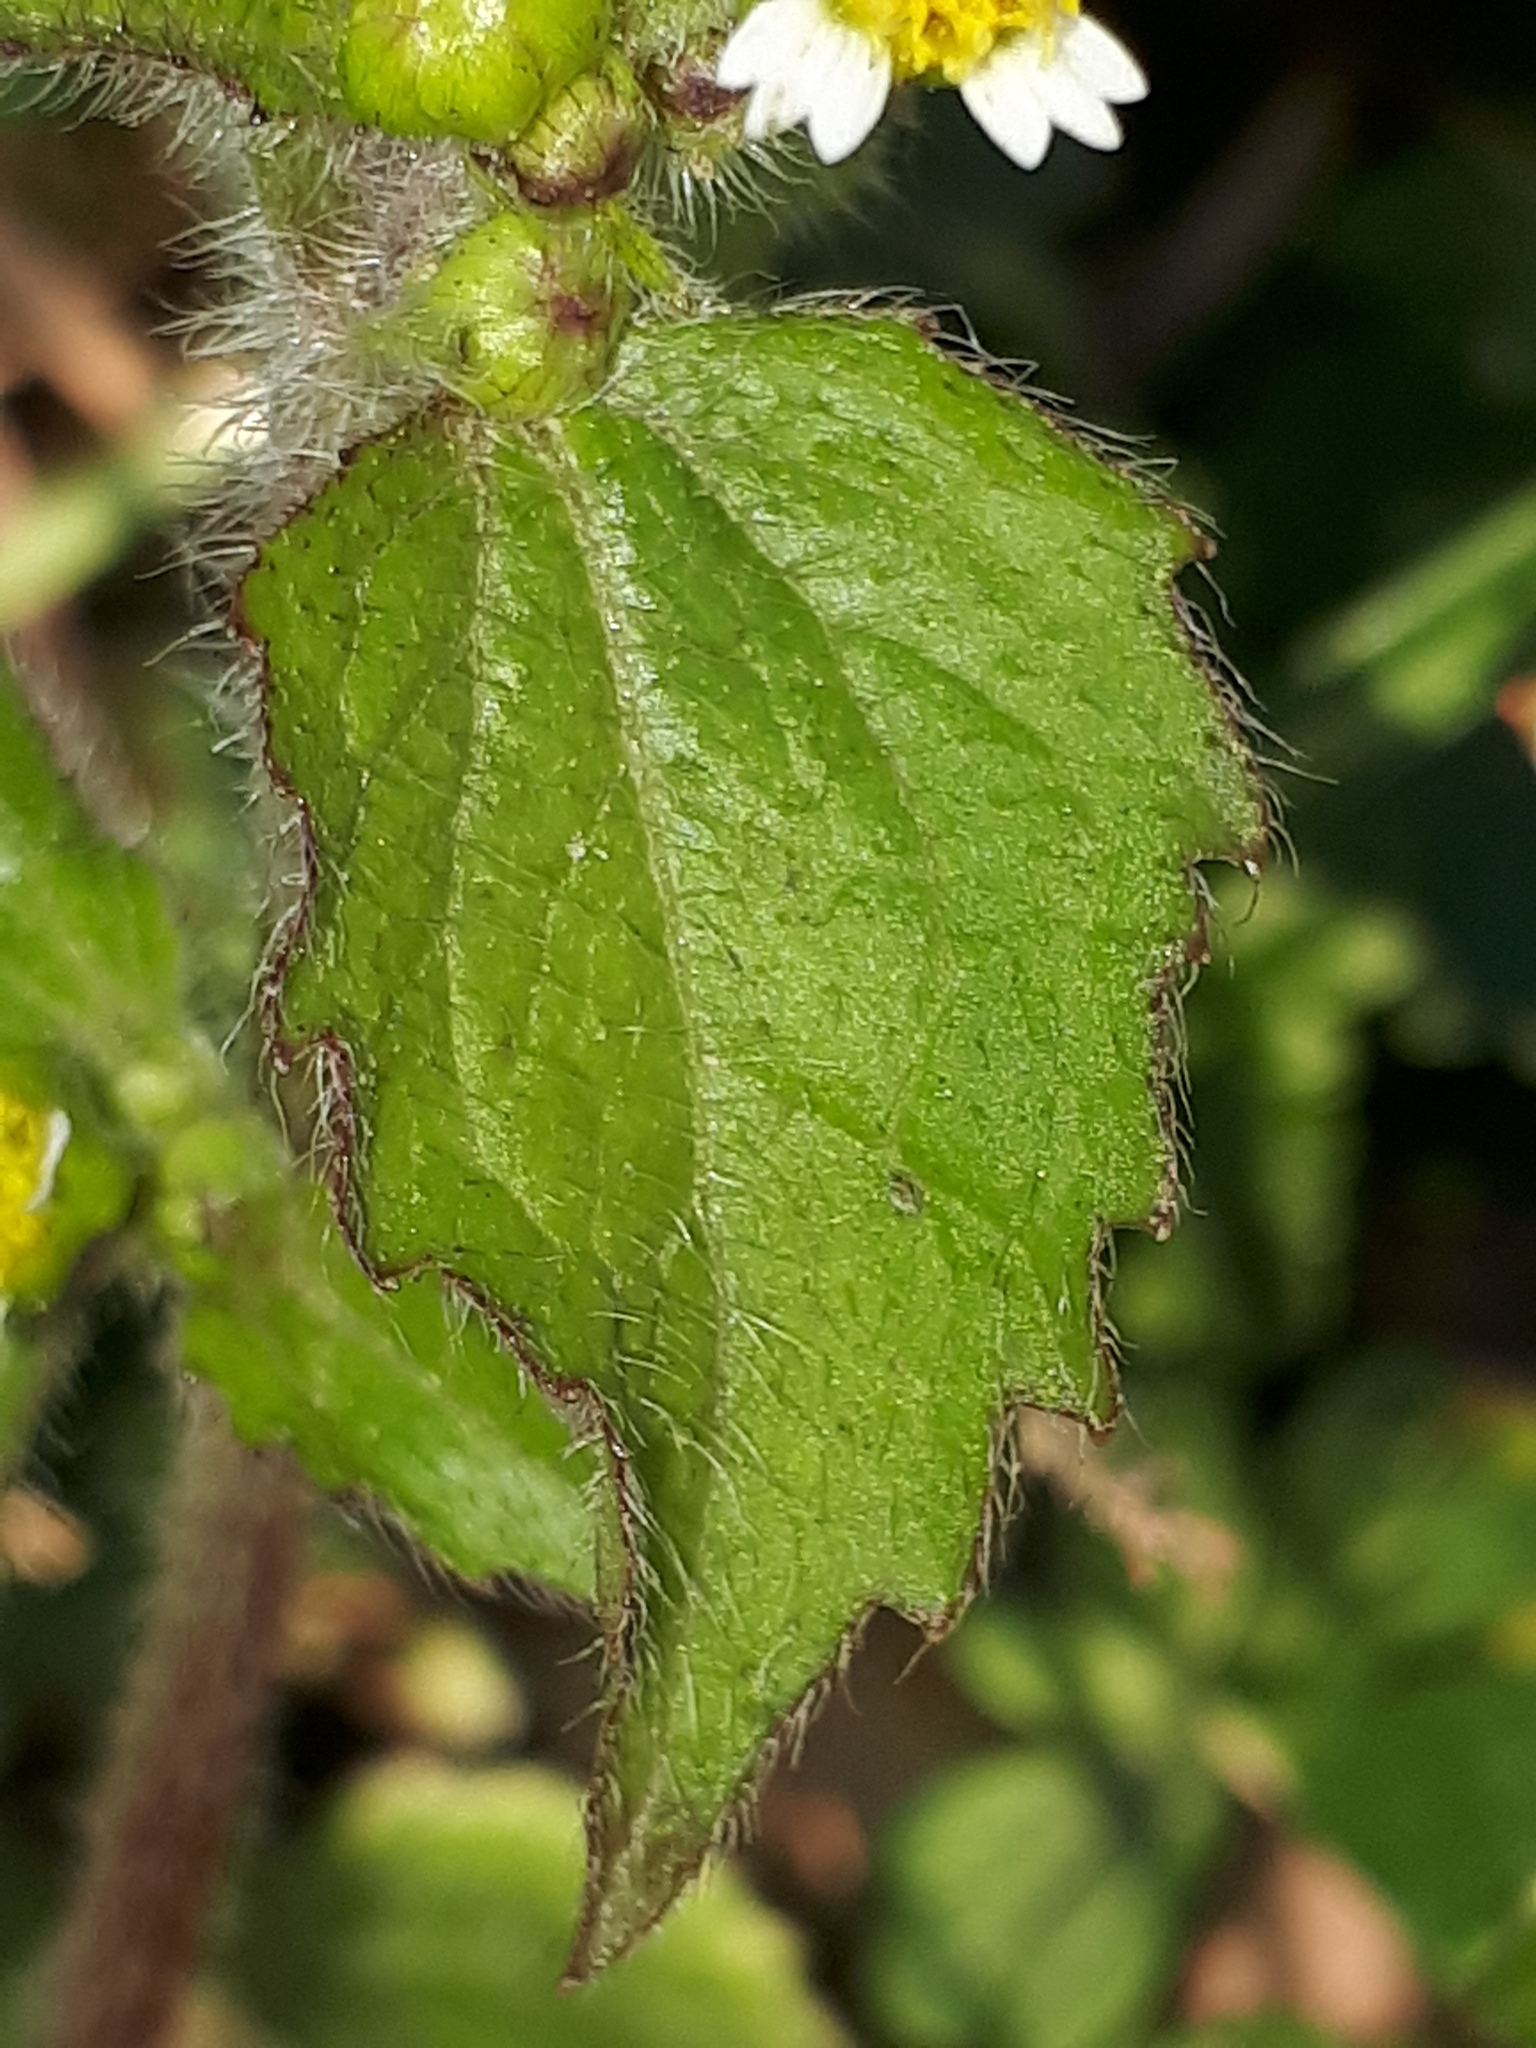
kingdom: Plantae
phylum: Tracheophyta
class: Magnoliopsida
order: Asterales
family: Asteraceae
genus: Galinsoga
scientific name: Galinsoga quadriradiata
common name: Shaggy soldier
